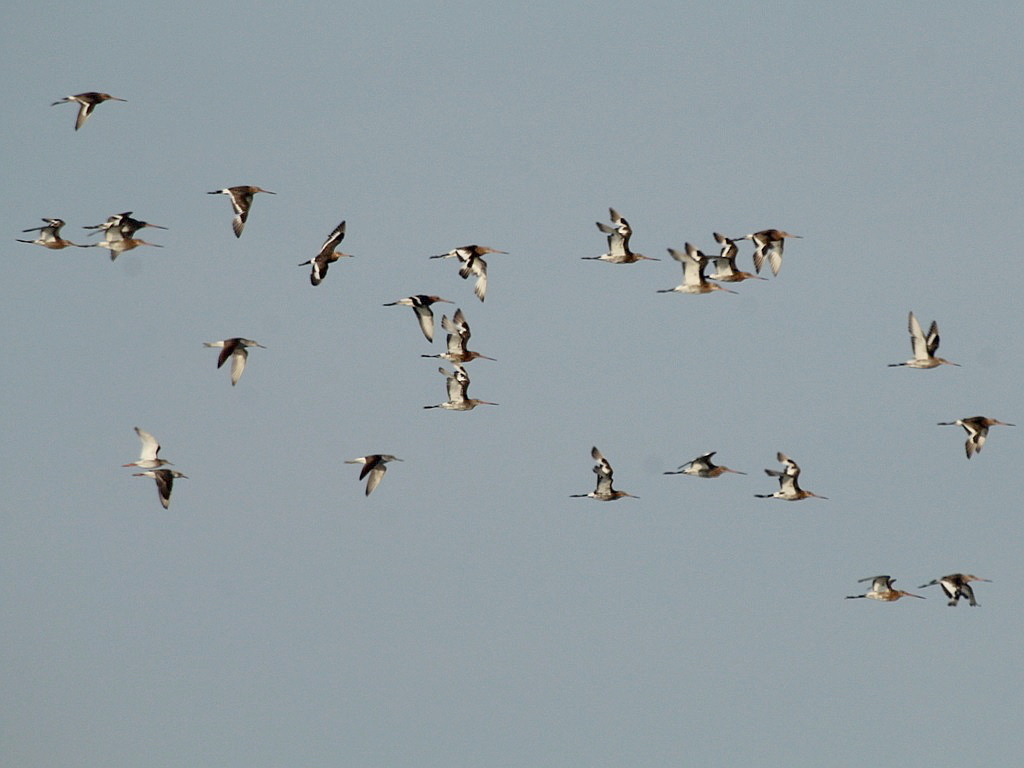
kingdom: Animalia
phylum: Chordata
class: Aves
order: Charadriiformes
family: Scolopacidae
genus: Limosa
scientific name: Limosa limosa
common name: Black-tailed godwit
